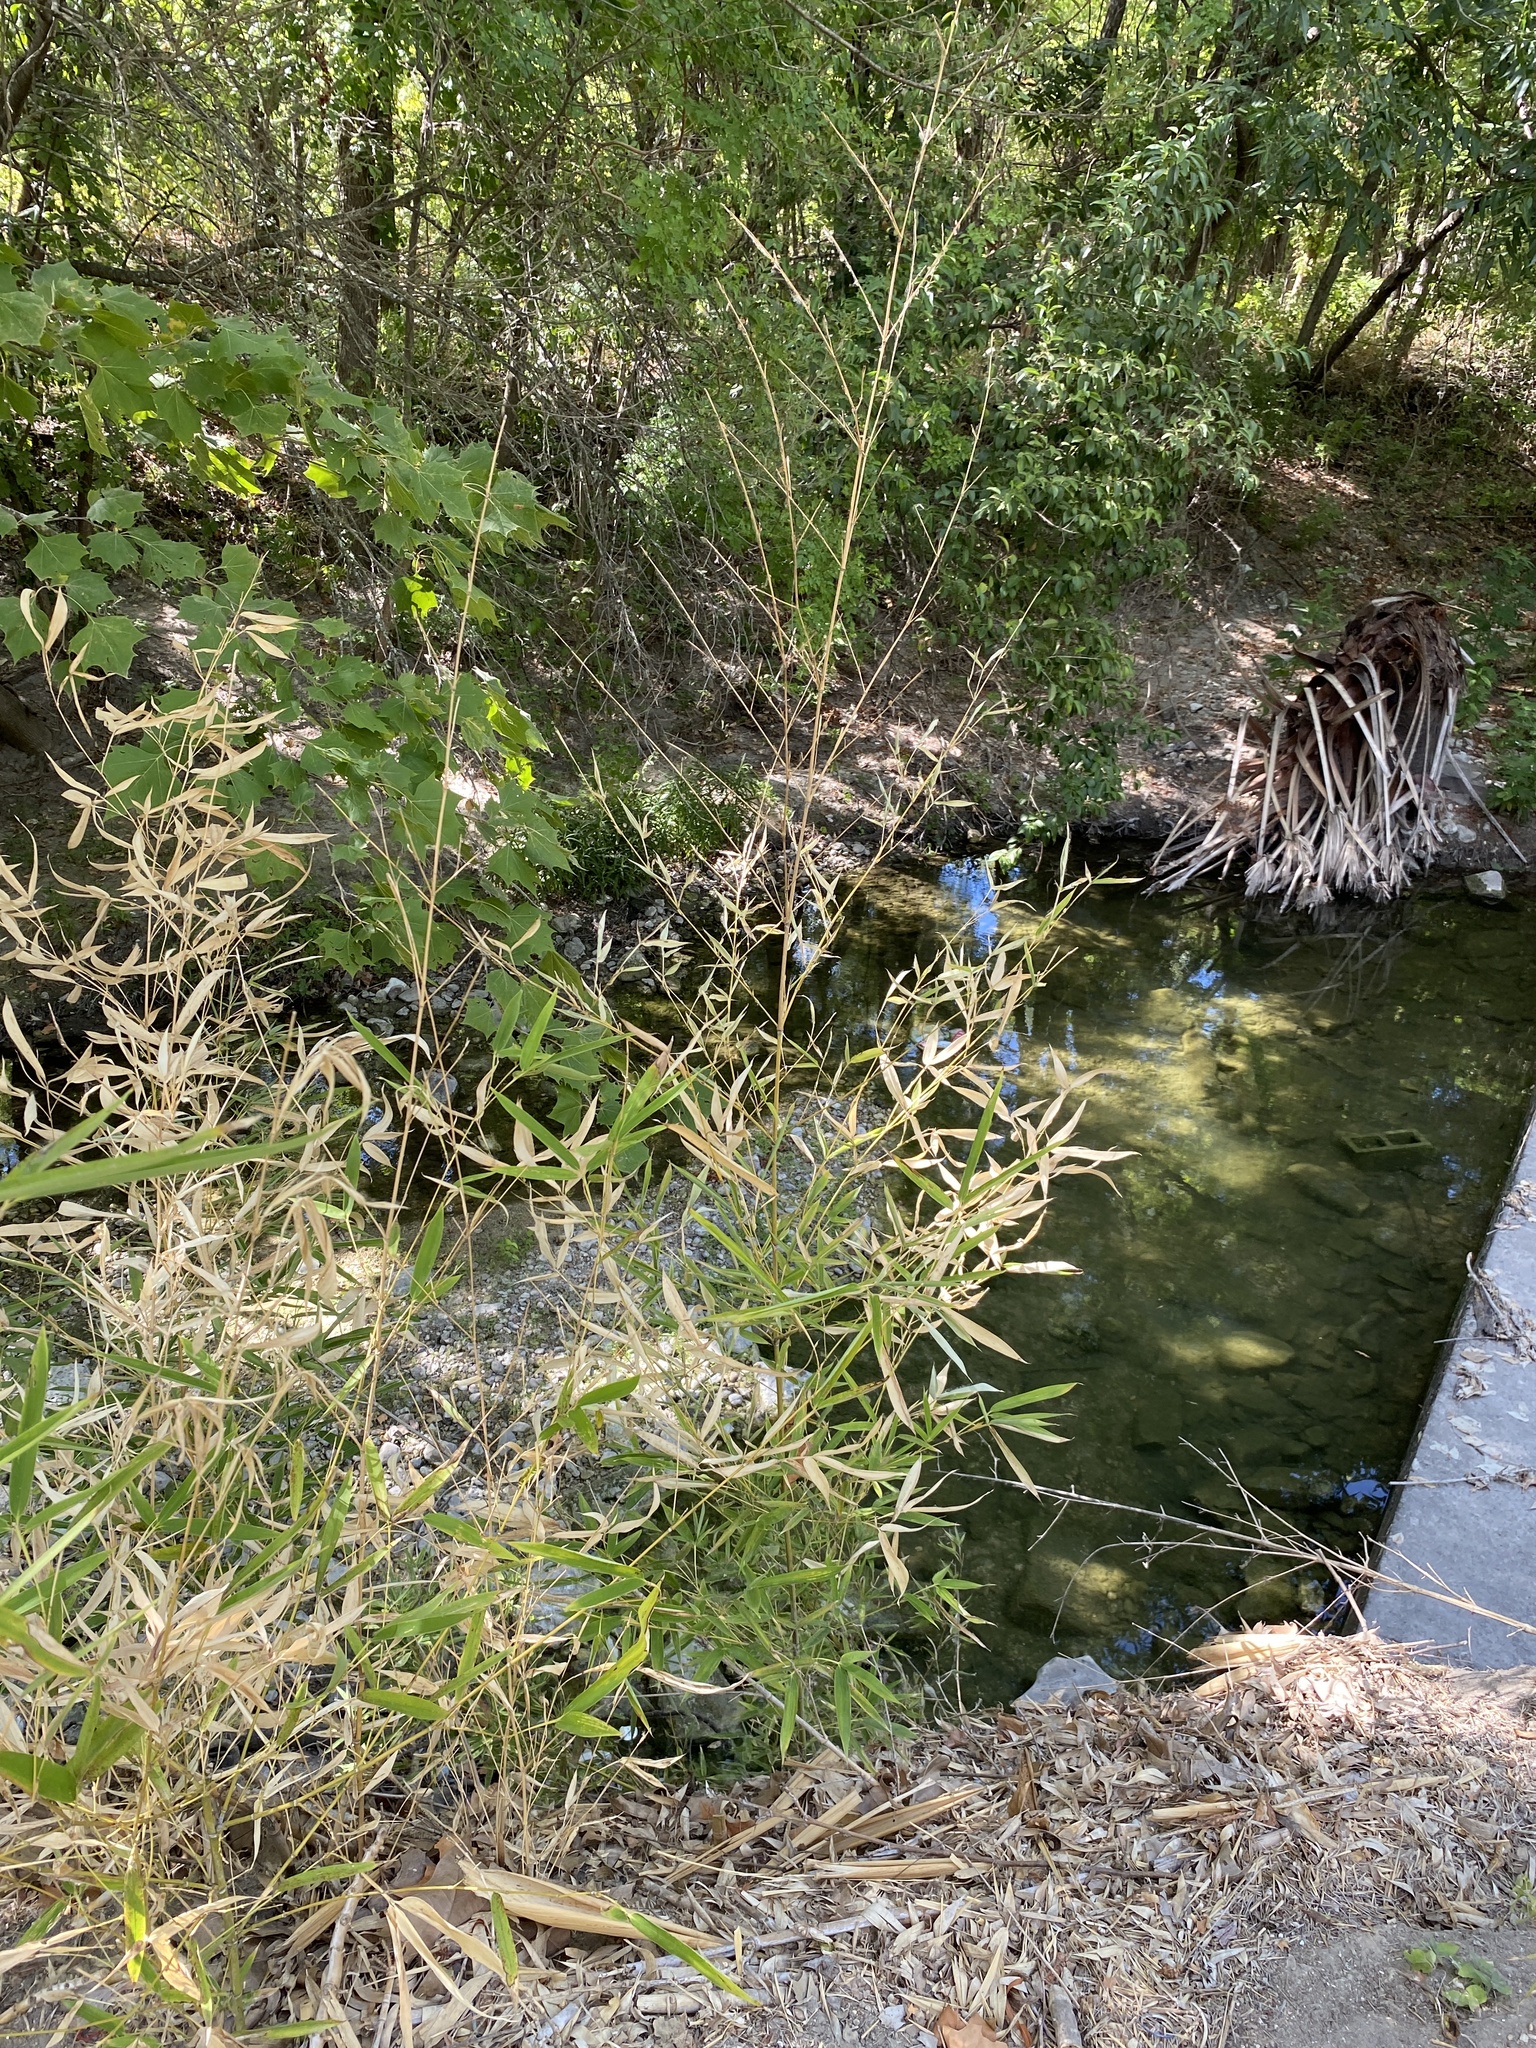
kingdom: Plantae
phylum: Tracheophyta
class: Liliopsida
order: Poales
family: Poaceae
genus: Phyllostachys
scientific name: Phyllostachys aurea
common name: Golden bamboo
